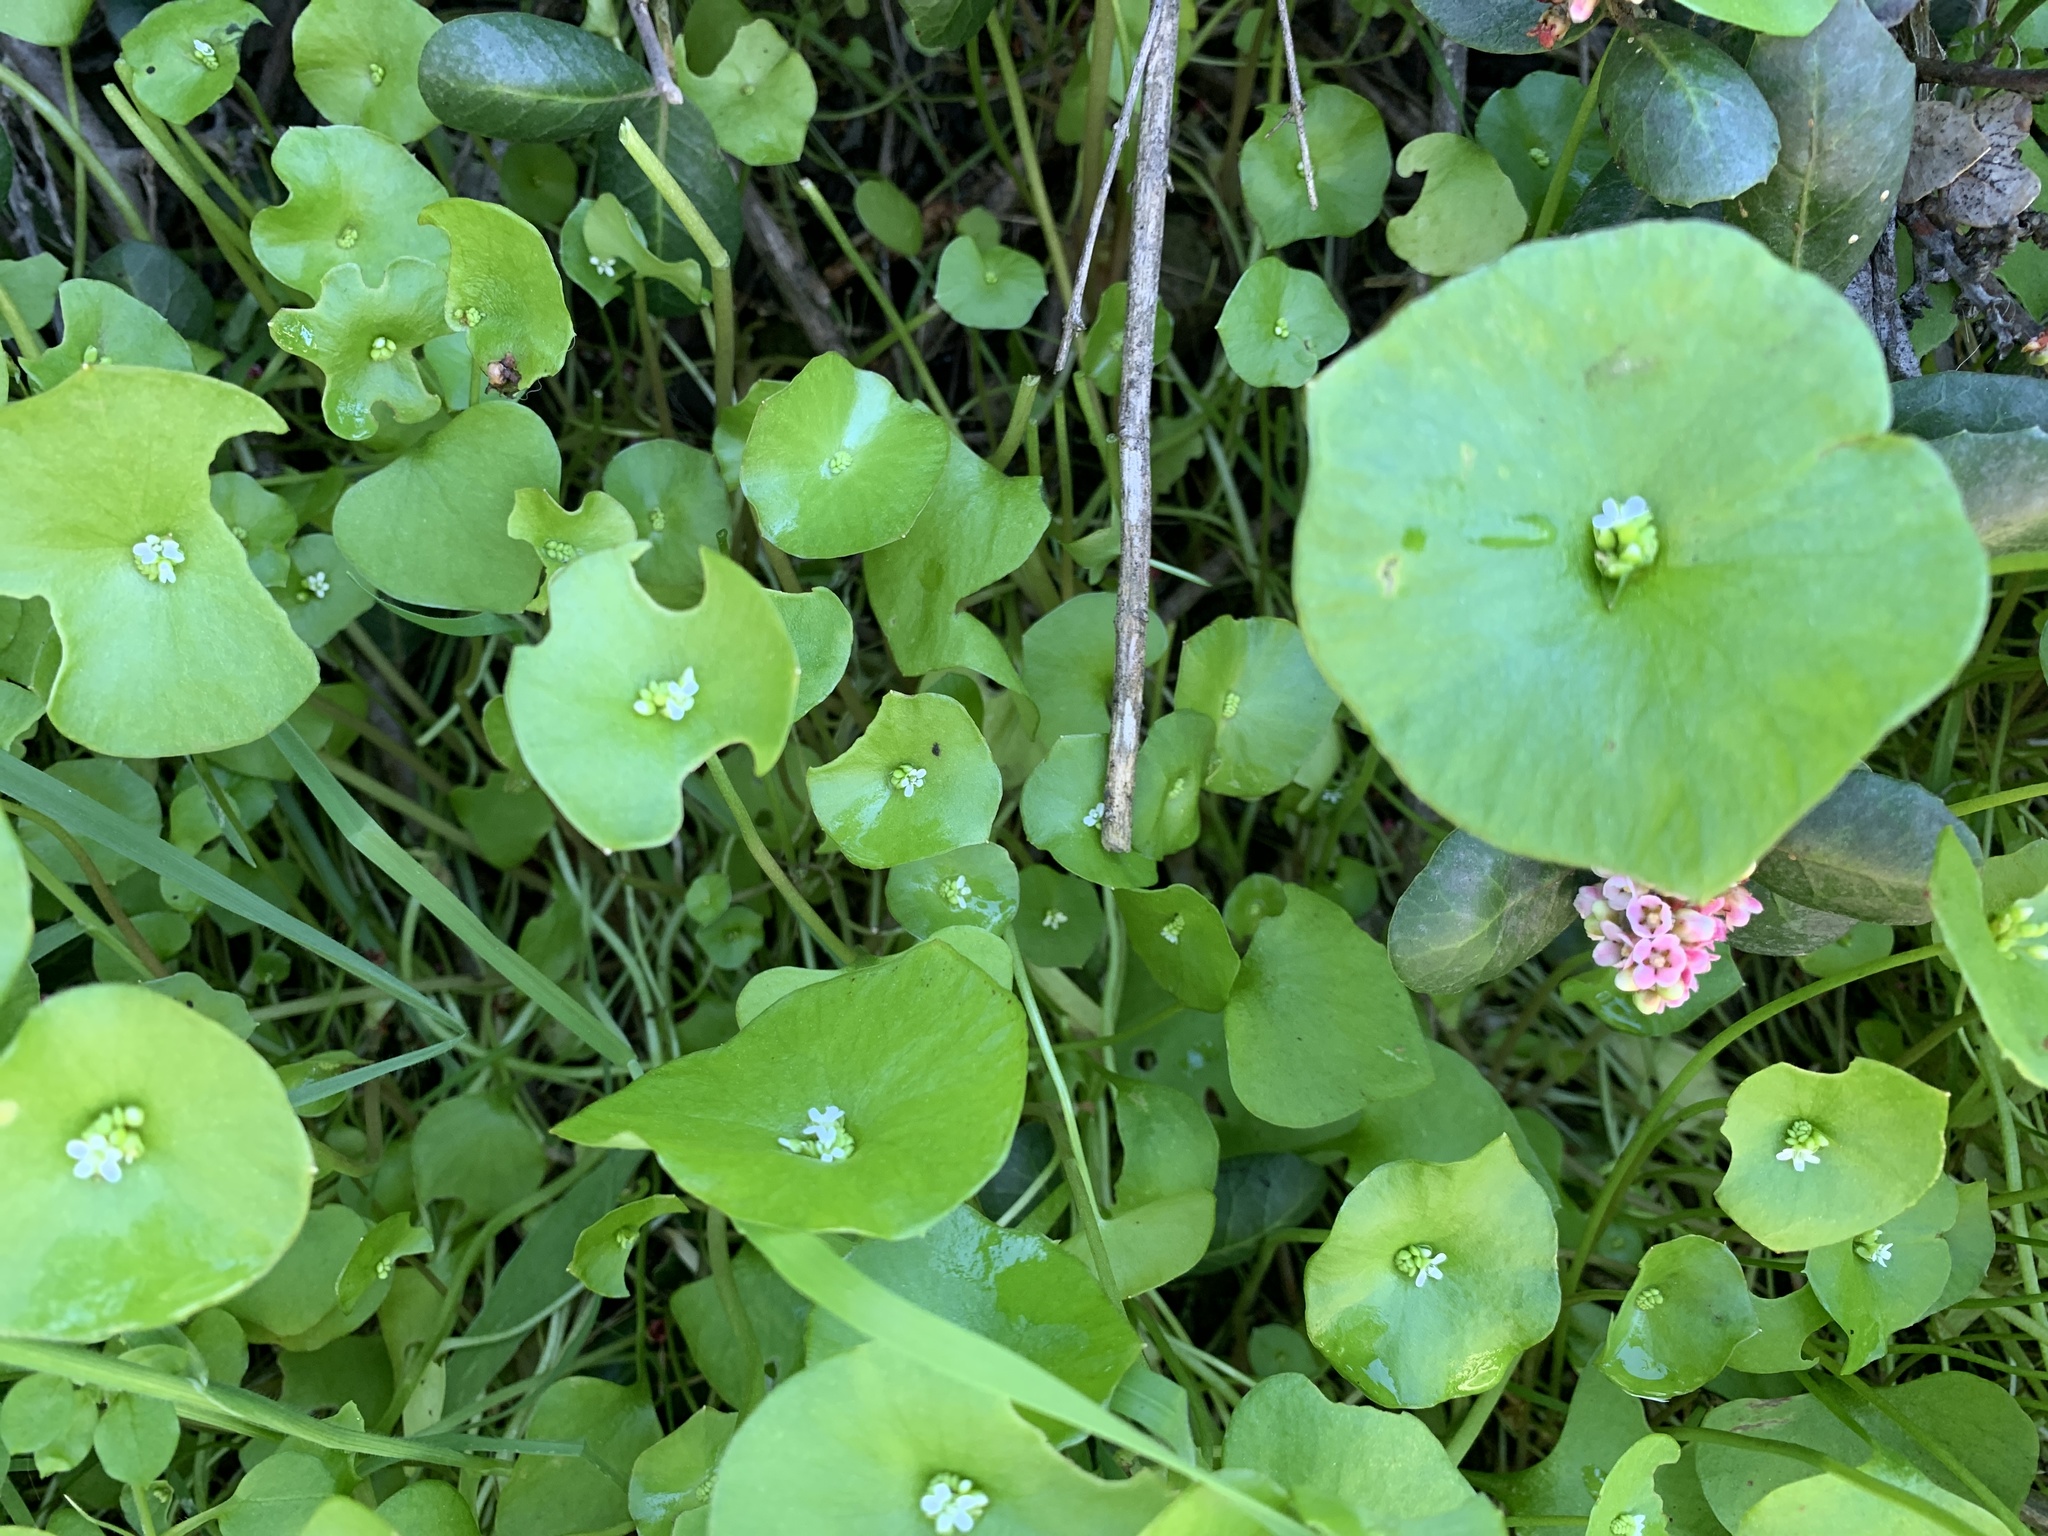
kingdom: Plantae
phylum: Tracheophyta
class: Magnoliopsida
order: Caryophyllales
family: Montiaceae
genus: Claytonia
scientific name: Claytonia perfoliata
